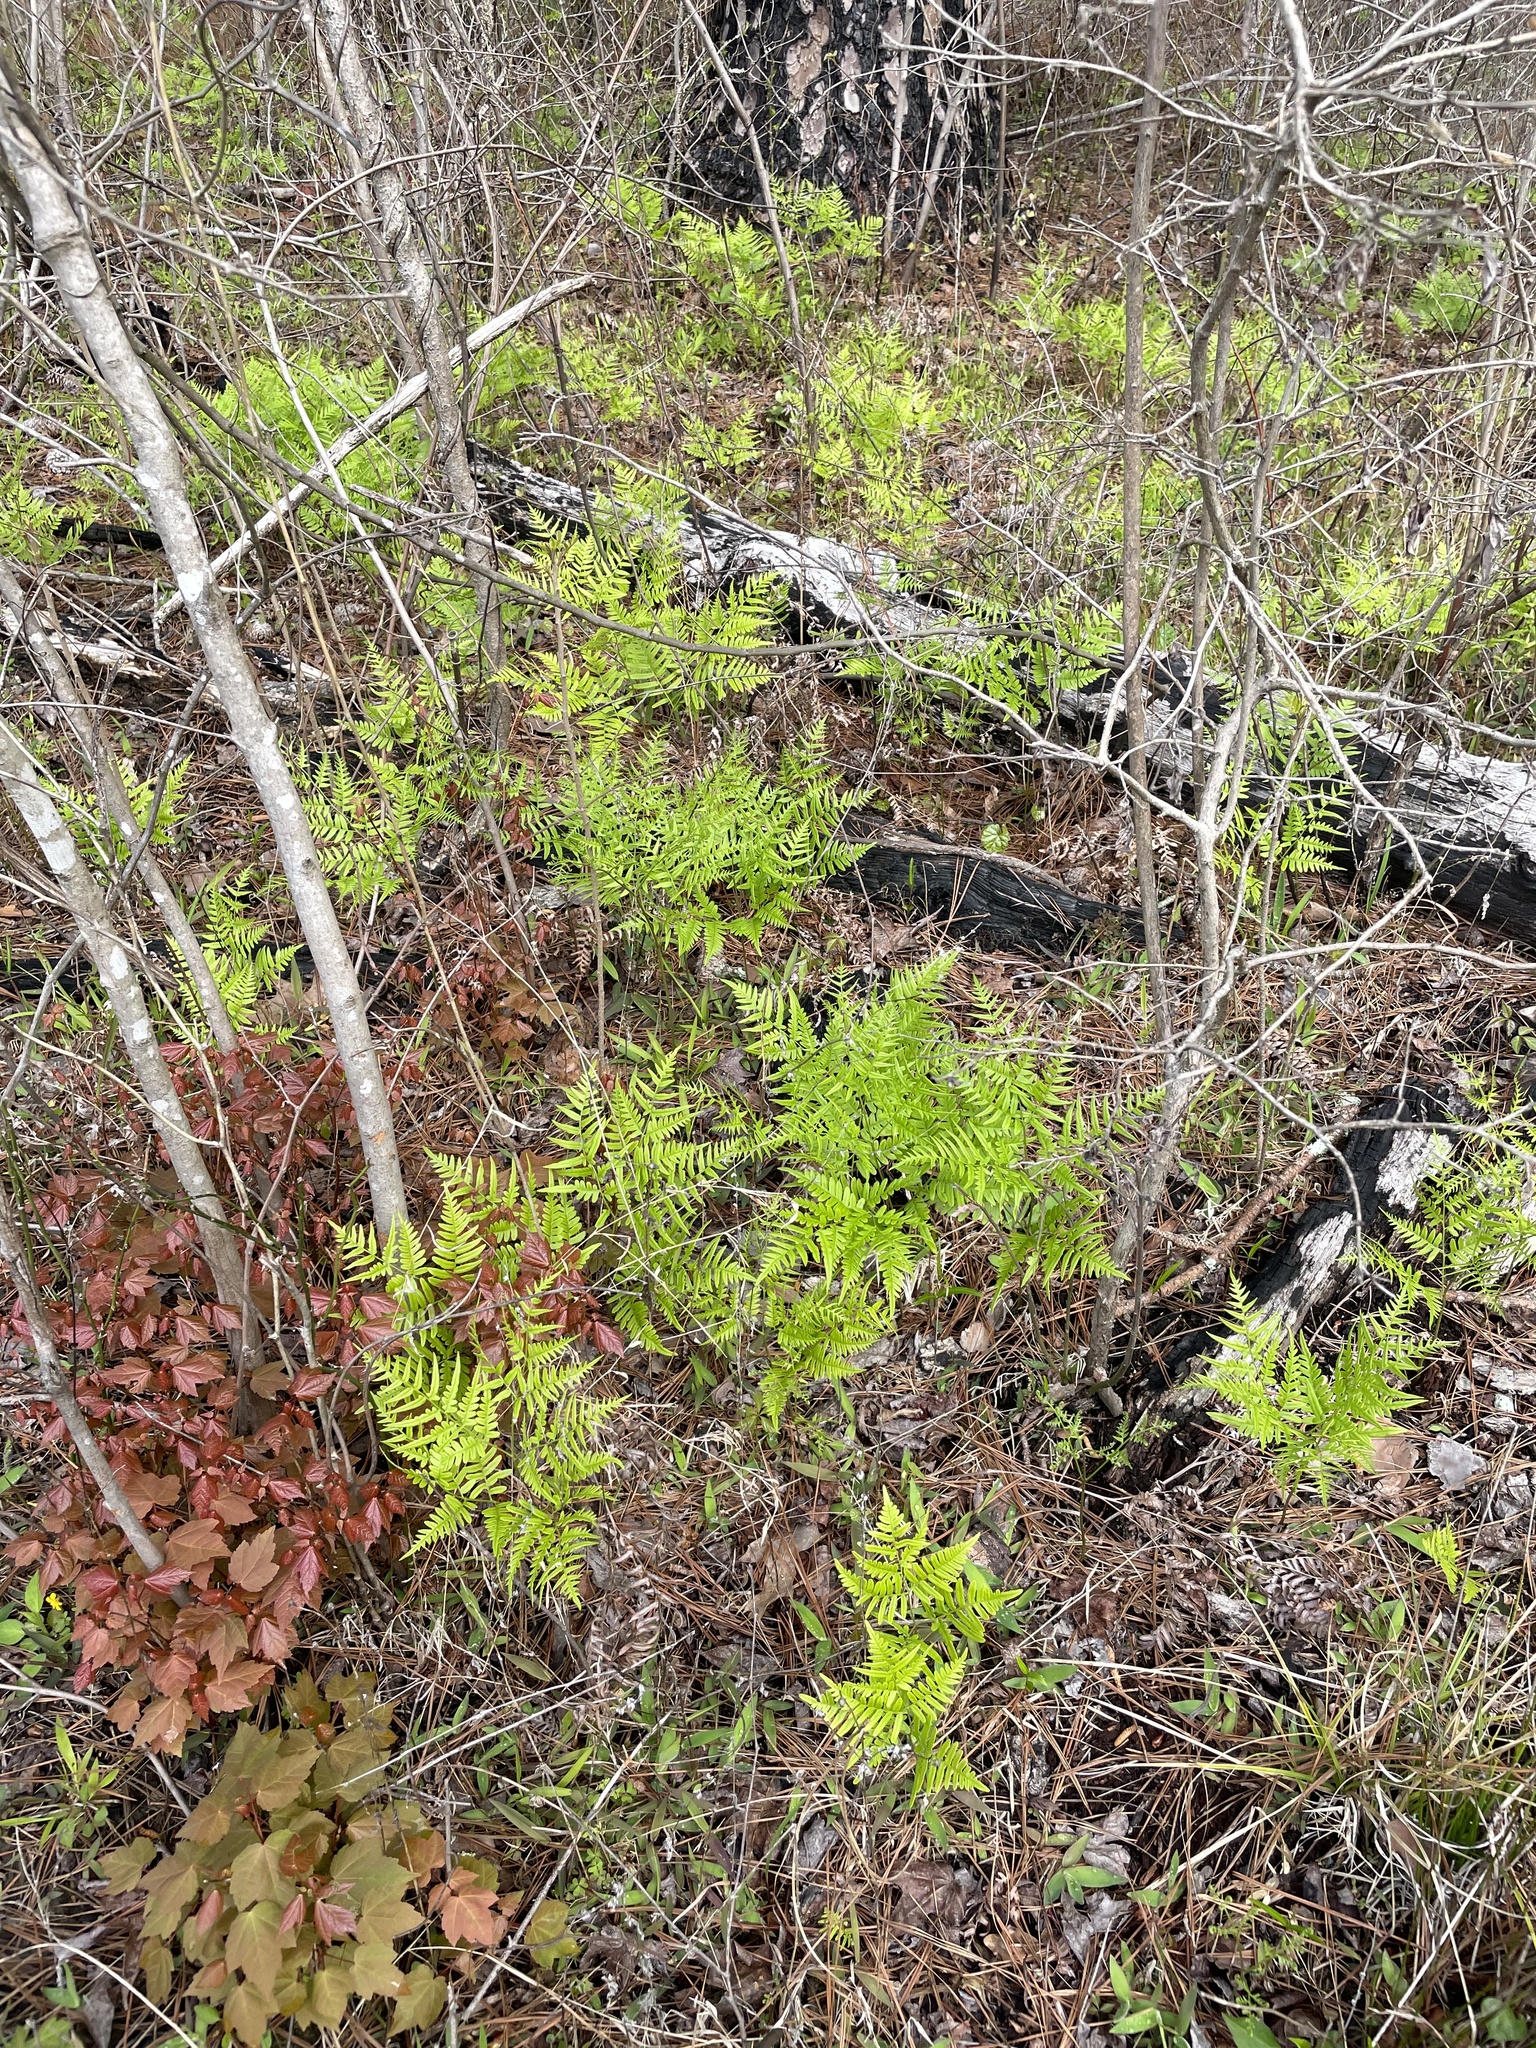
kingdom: Plantae
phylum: Tracheophyta
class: Polypodiopsida
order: Polypodiales
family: Dennstaedtiaceae
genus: Pteridium
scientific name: Pteridium aquilinum
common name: Bracken
